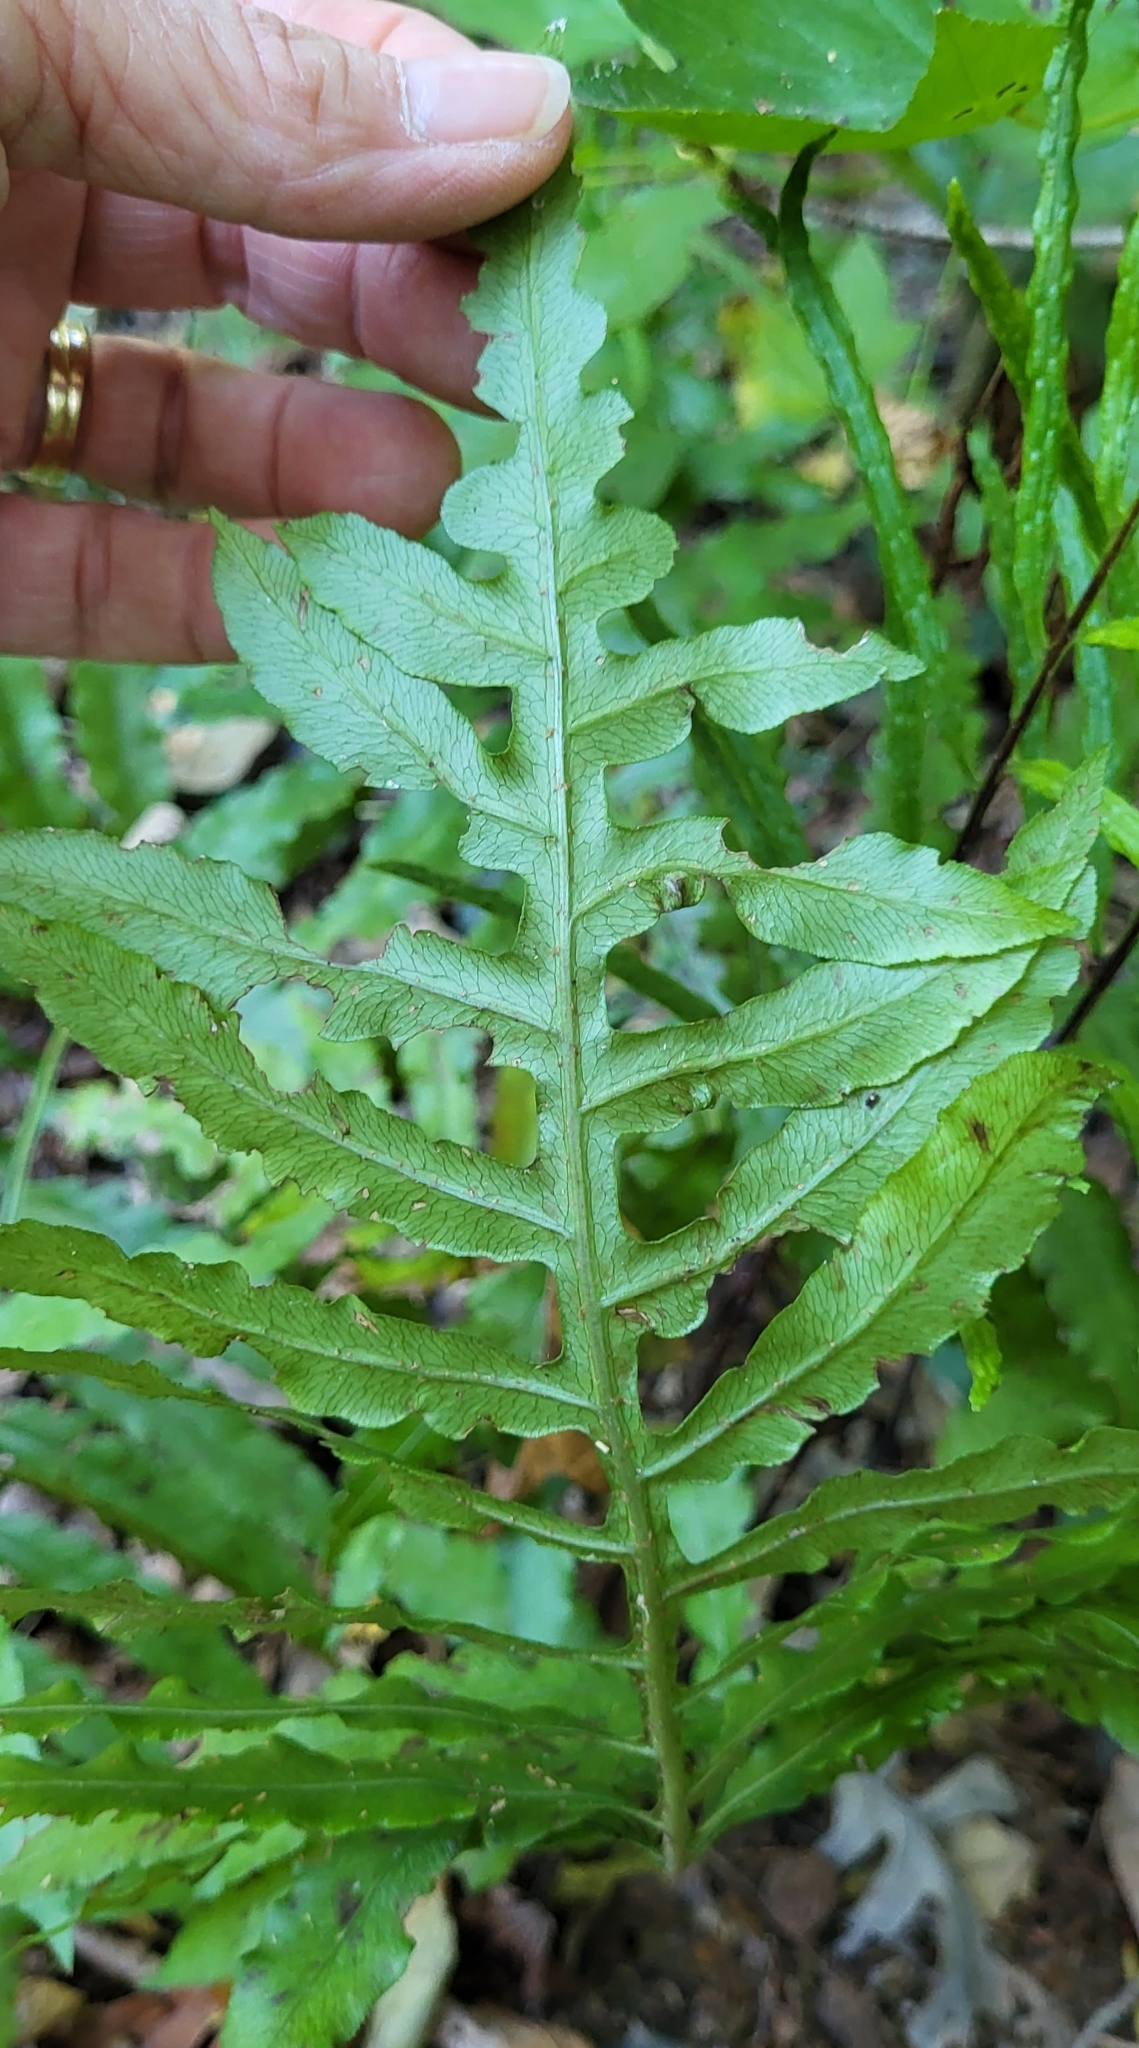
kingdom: Plantae
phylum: Tracheophyta
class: Polypodiopsida
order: Polypodiales
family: Blechnaceae
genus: Lorinseria
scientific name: Lorinseria areolata
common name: Dwarf chain fern
